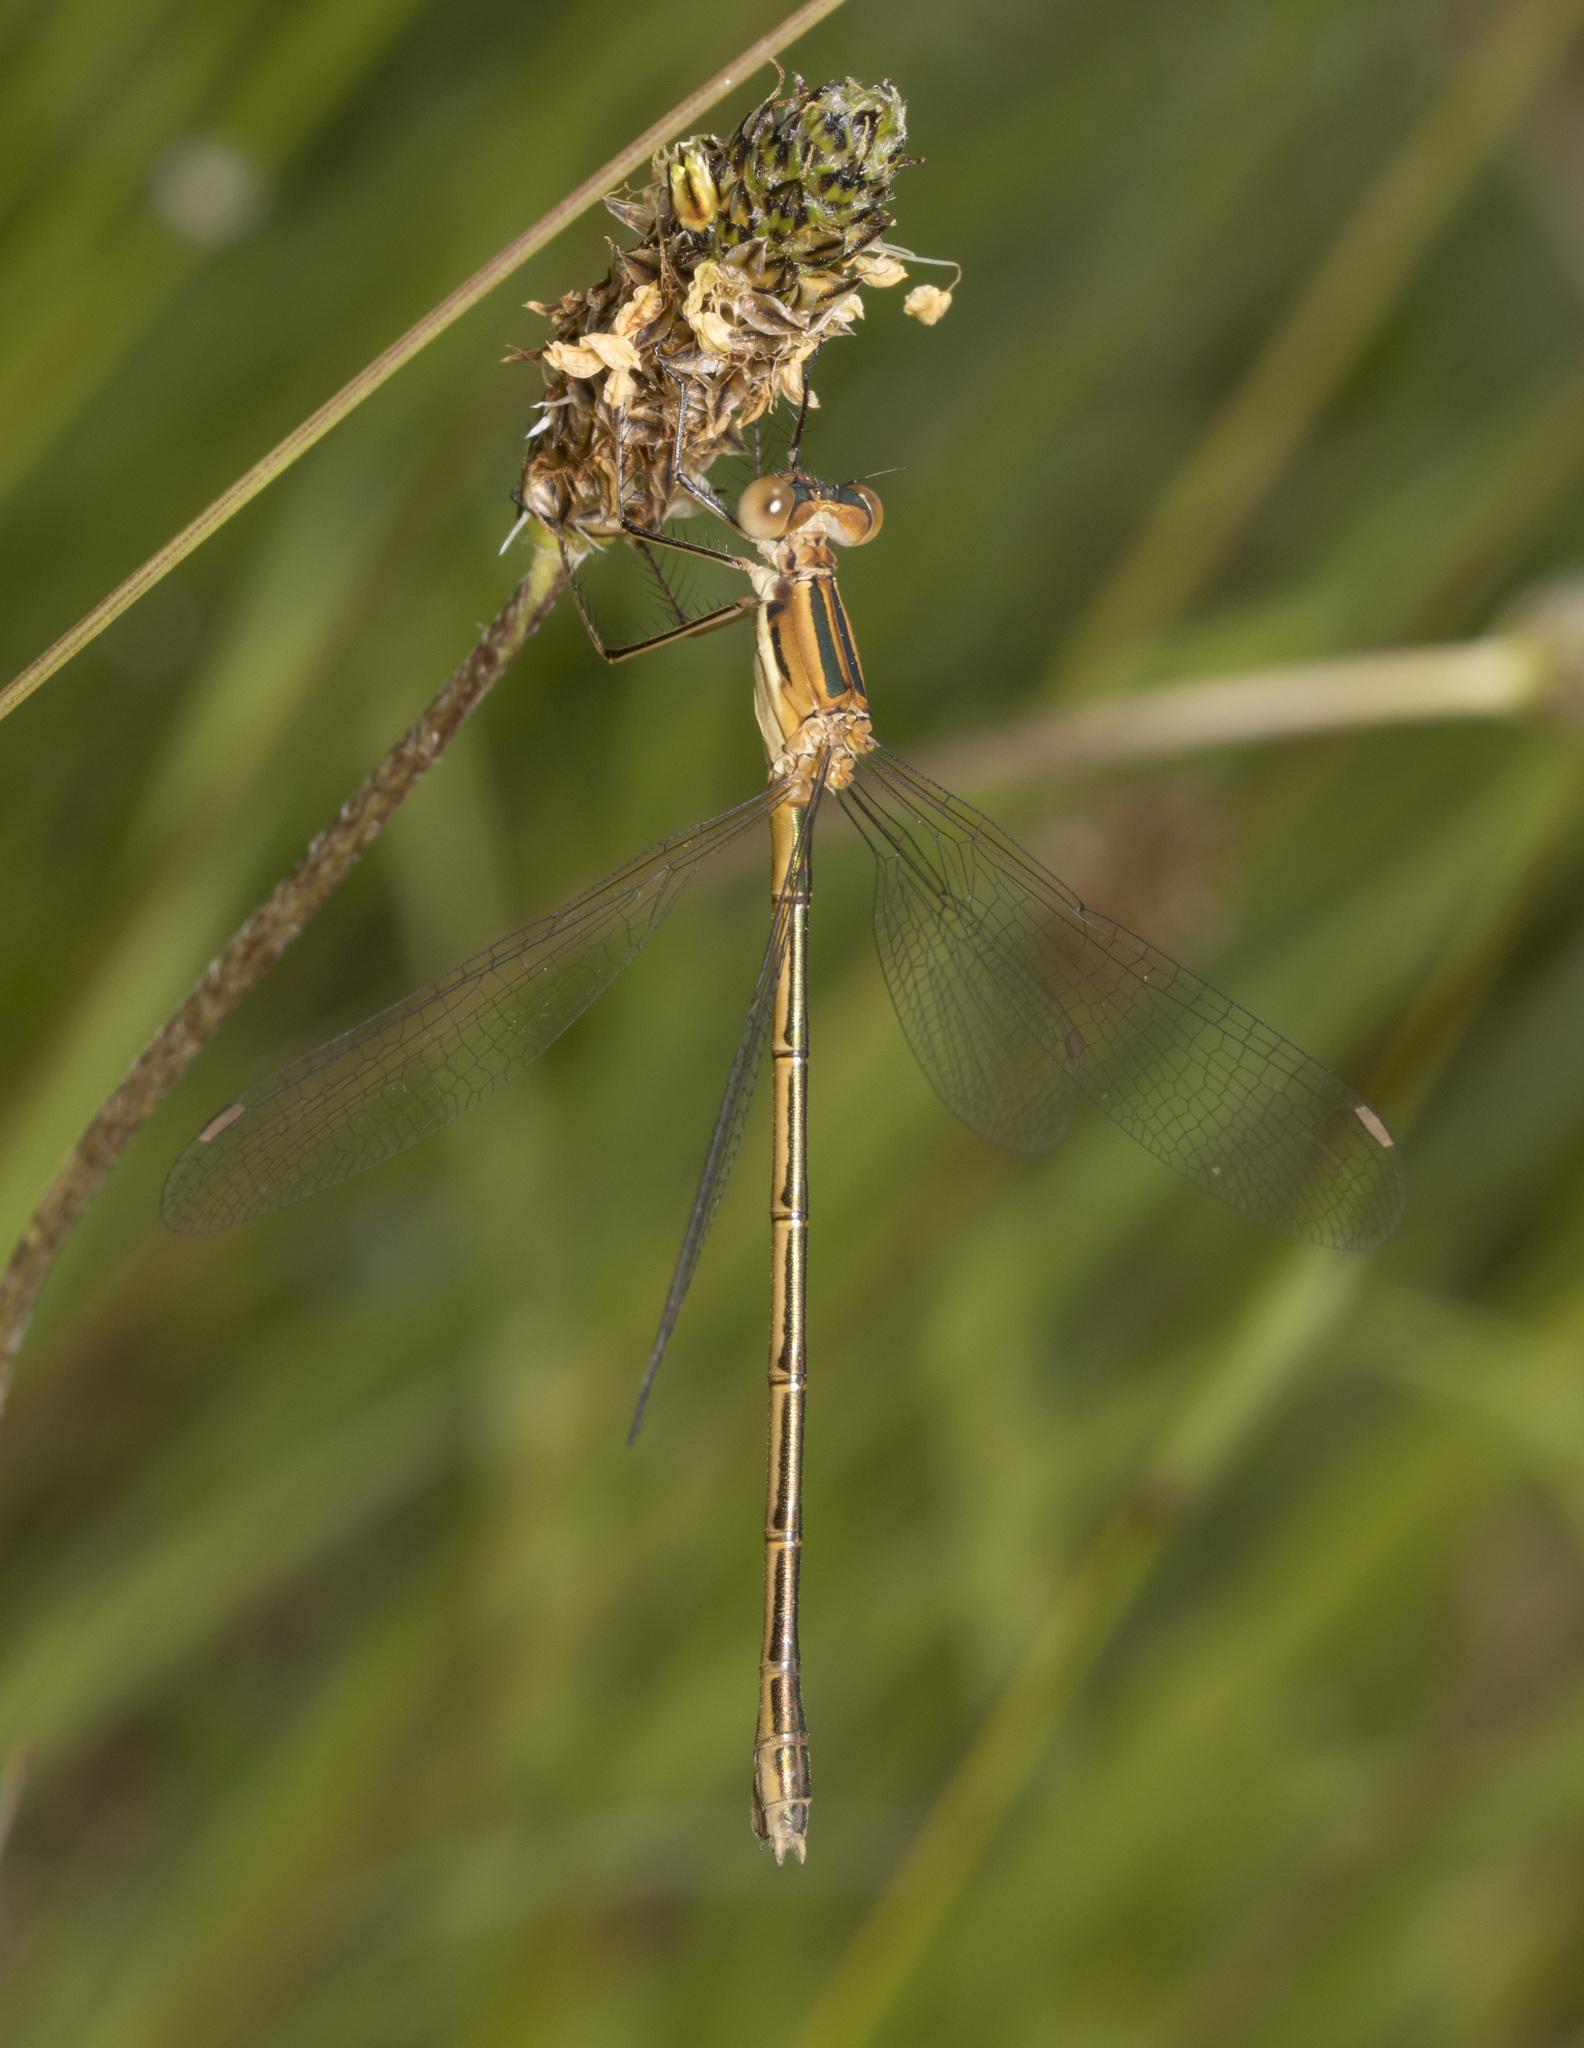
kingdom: Animalia
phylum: Arthropoda
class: Insecta
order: Odonata
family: Lestidae
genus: Lestes
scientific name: Lestes undulatus
